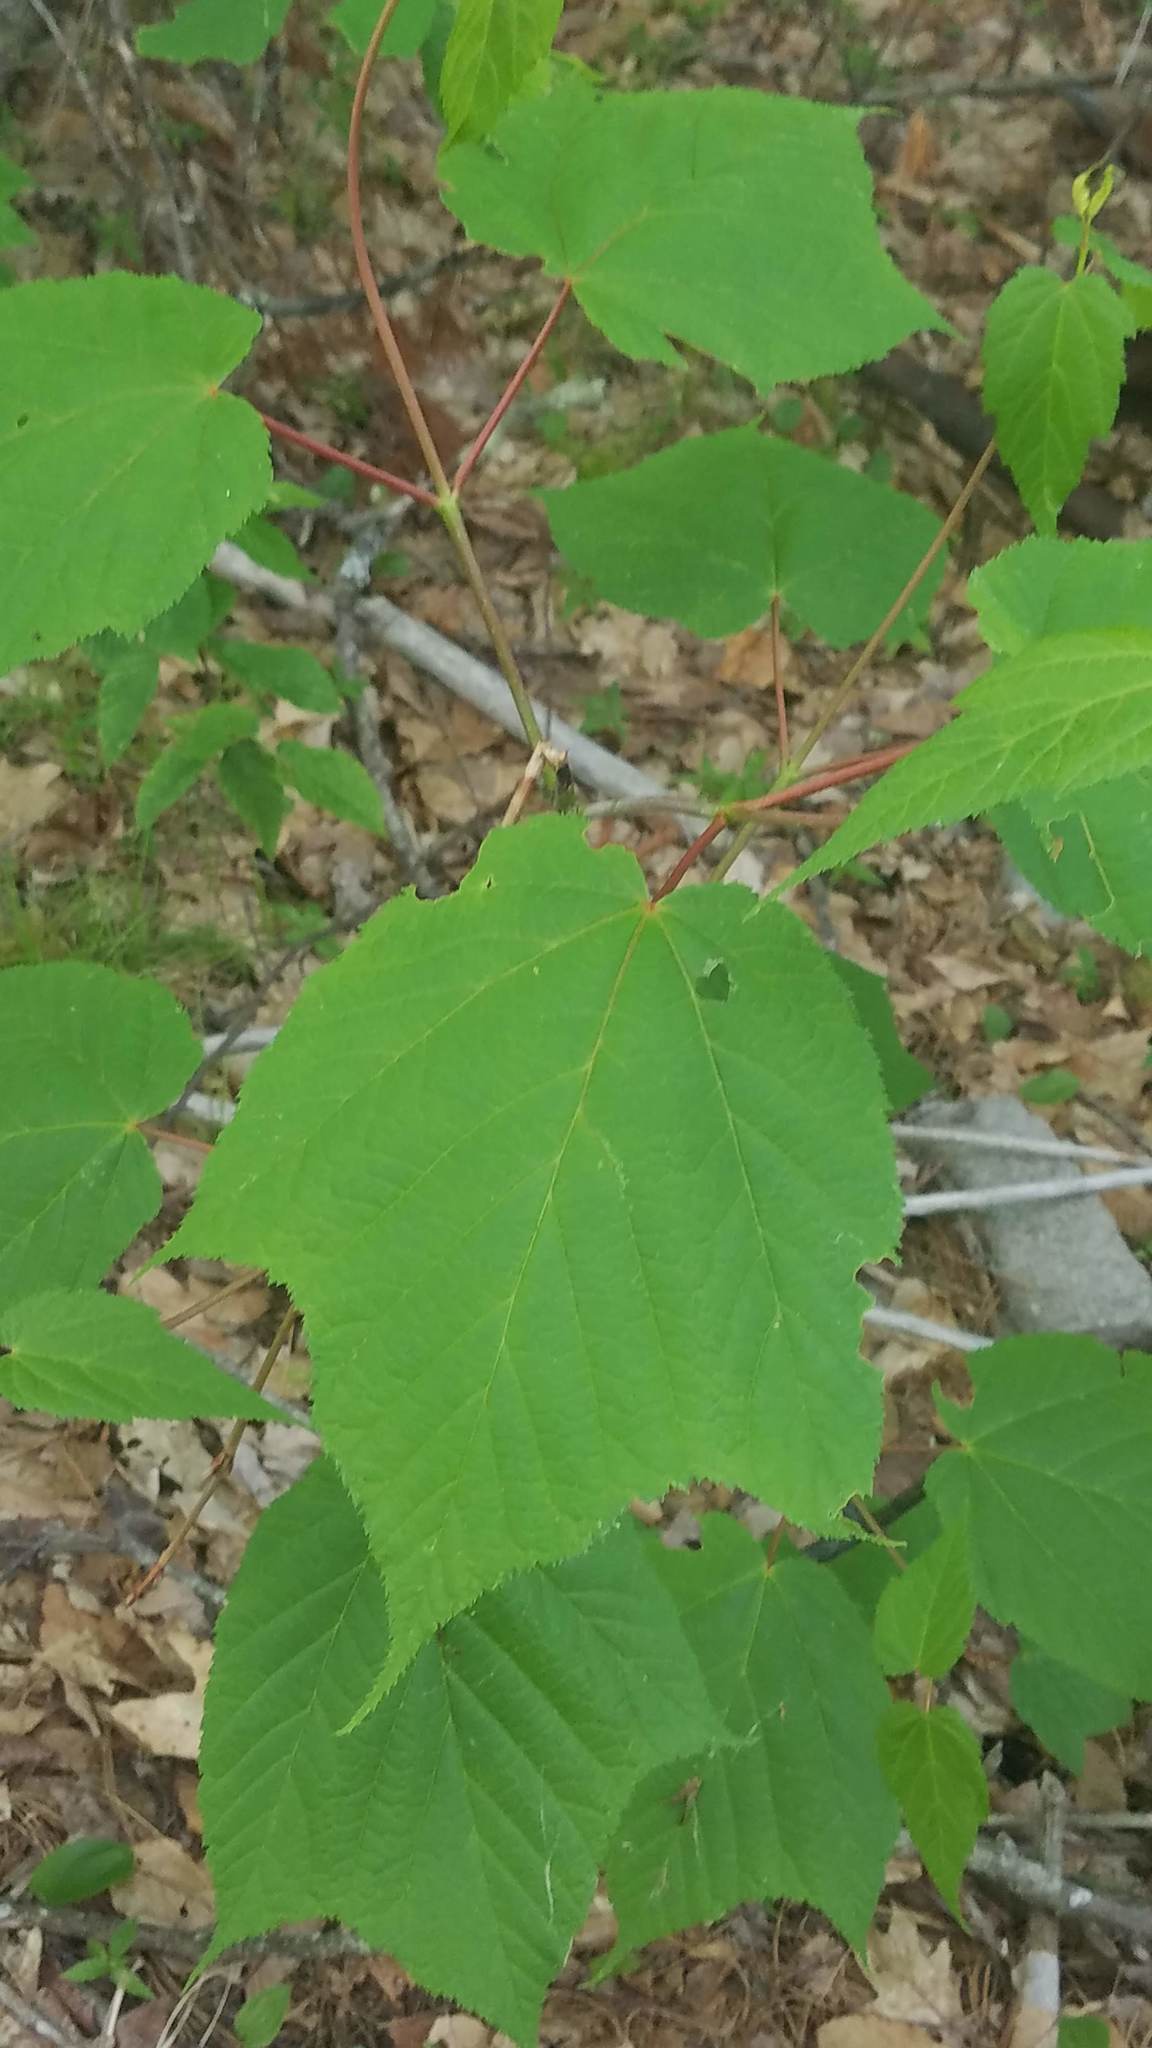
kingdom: Plantae
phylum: Tracheophyta
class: Magnoliopsida
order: Sapindales
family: Sapindaceae
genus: Acer
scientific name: Acer pensylvanicum
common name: Moosewood
